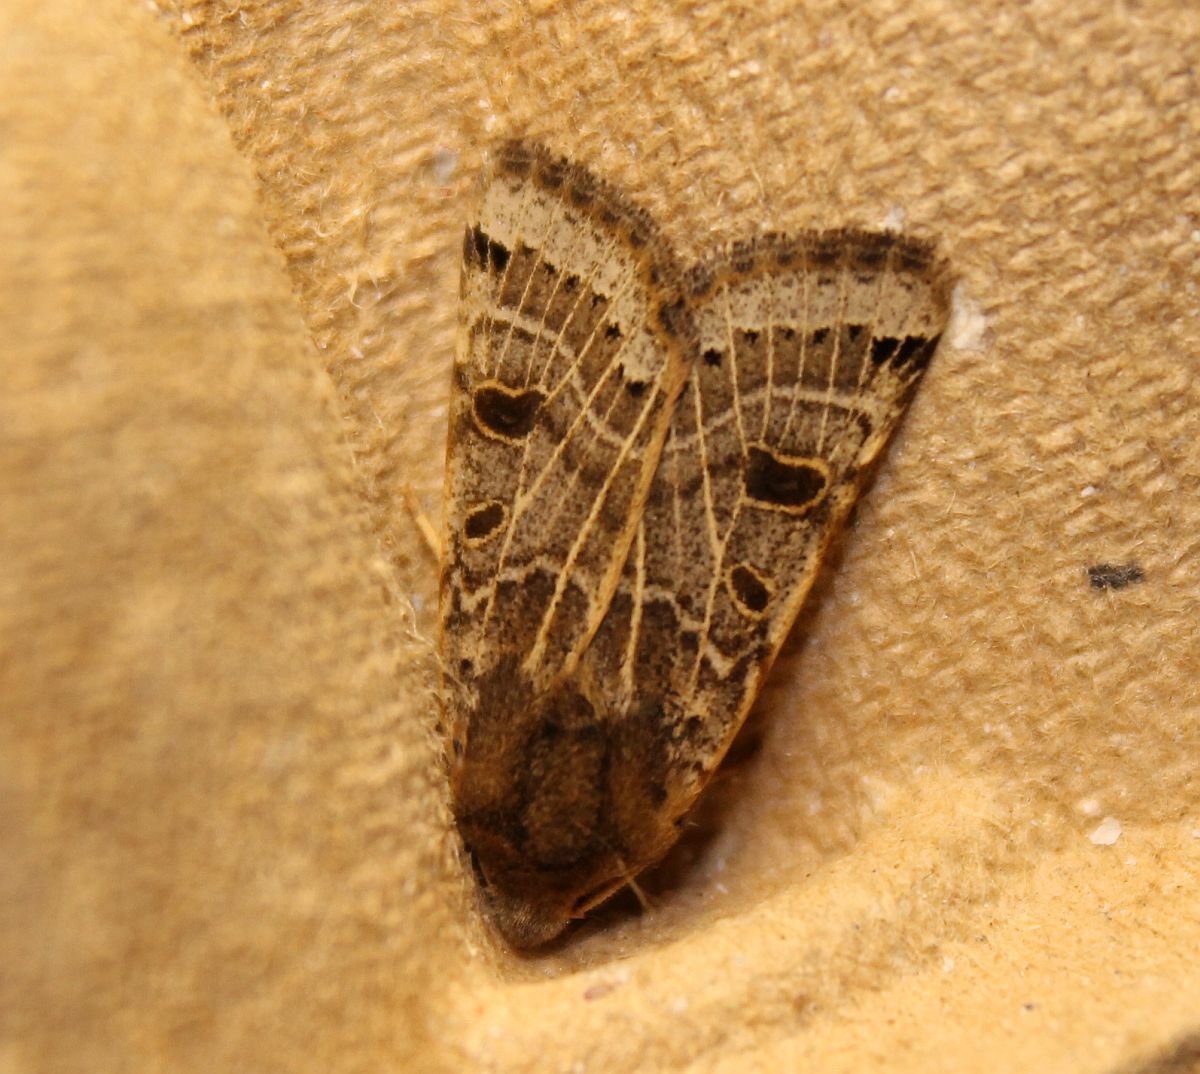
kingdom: Animalia
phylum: Arthropoda
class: Insecta
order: Lepidoptera
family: Noctuidae
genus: Agrochola
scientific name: Agrochola lunosa
